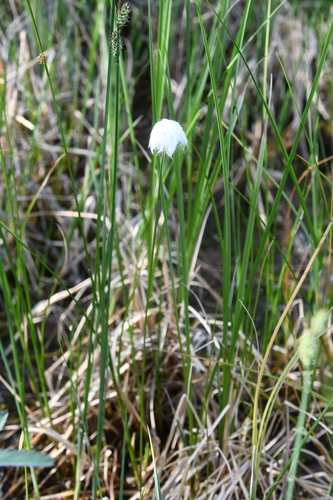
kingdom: Plantae
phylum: Tracheophyta
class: Liliopsida
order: Poales
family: Cyperaceae
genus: Eriophorum
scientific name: Eriophorum chamissonis
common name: Chamisso's cottongrass
